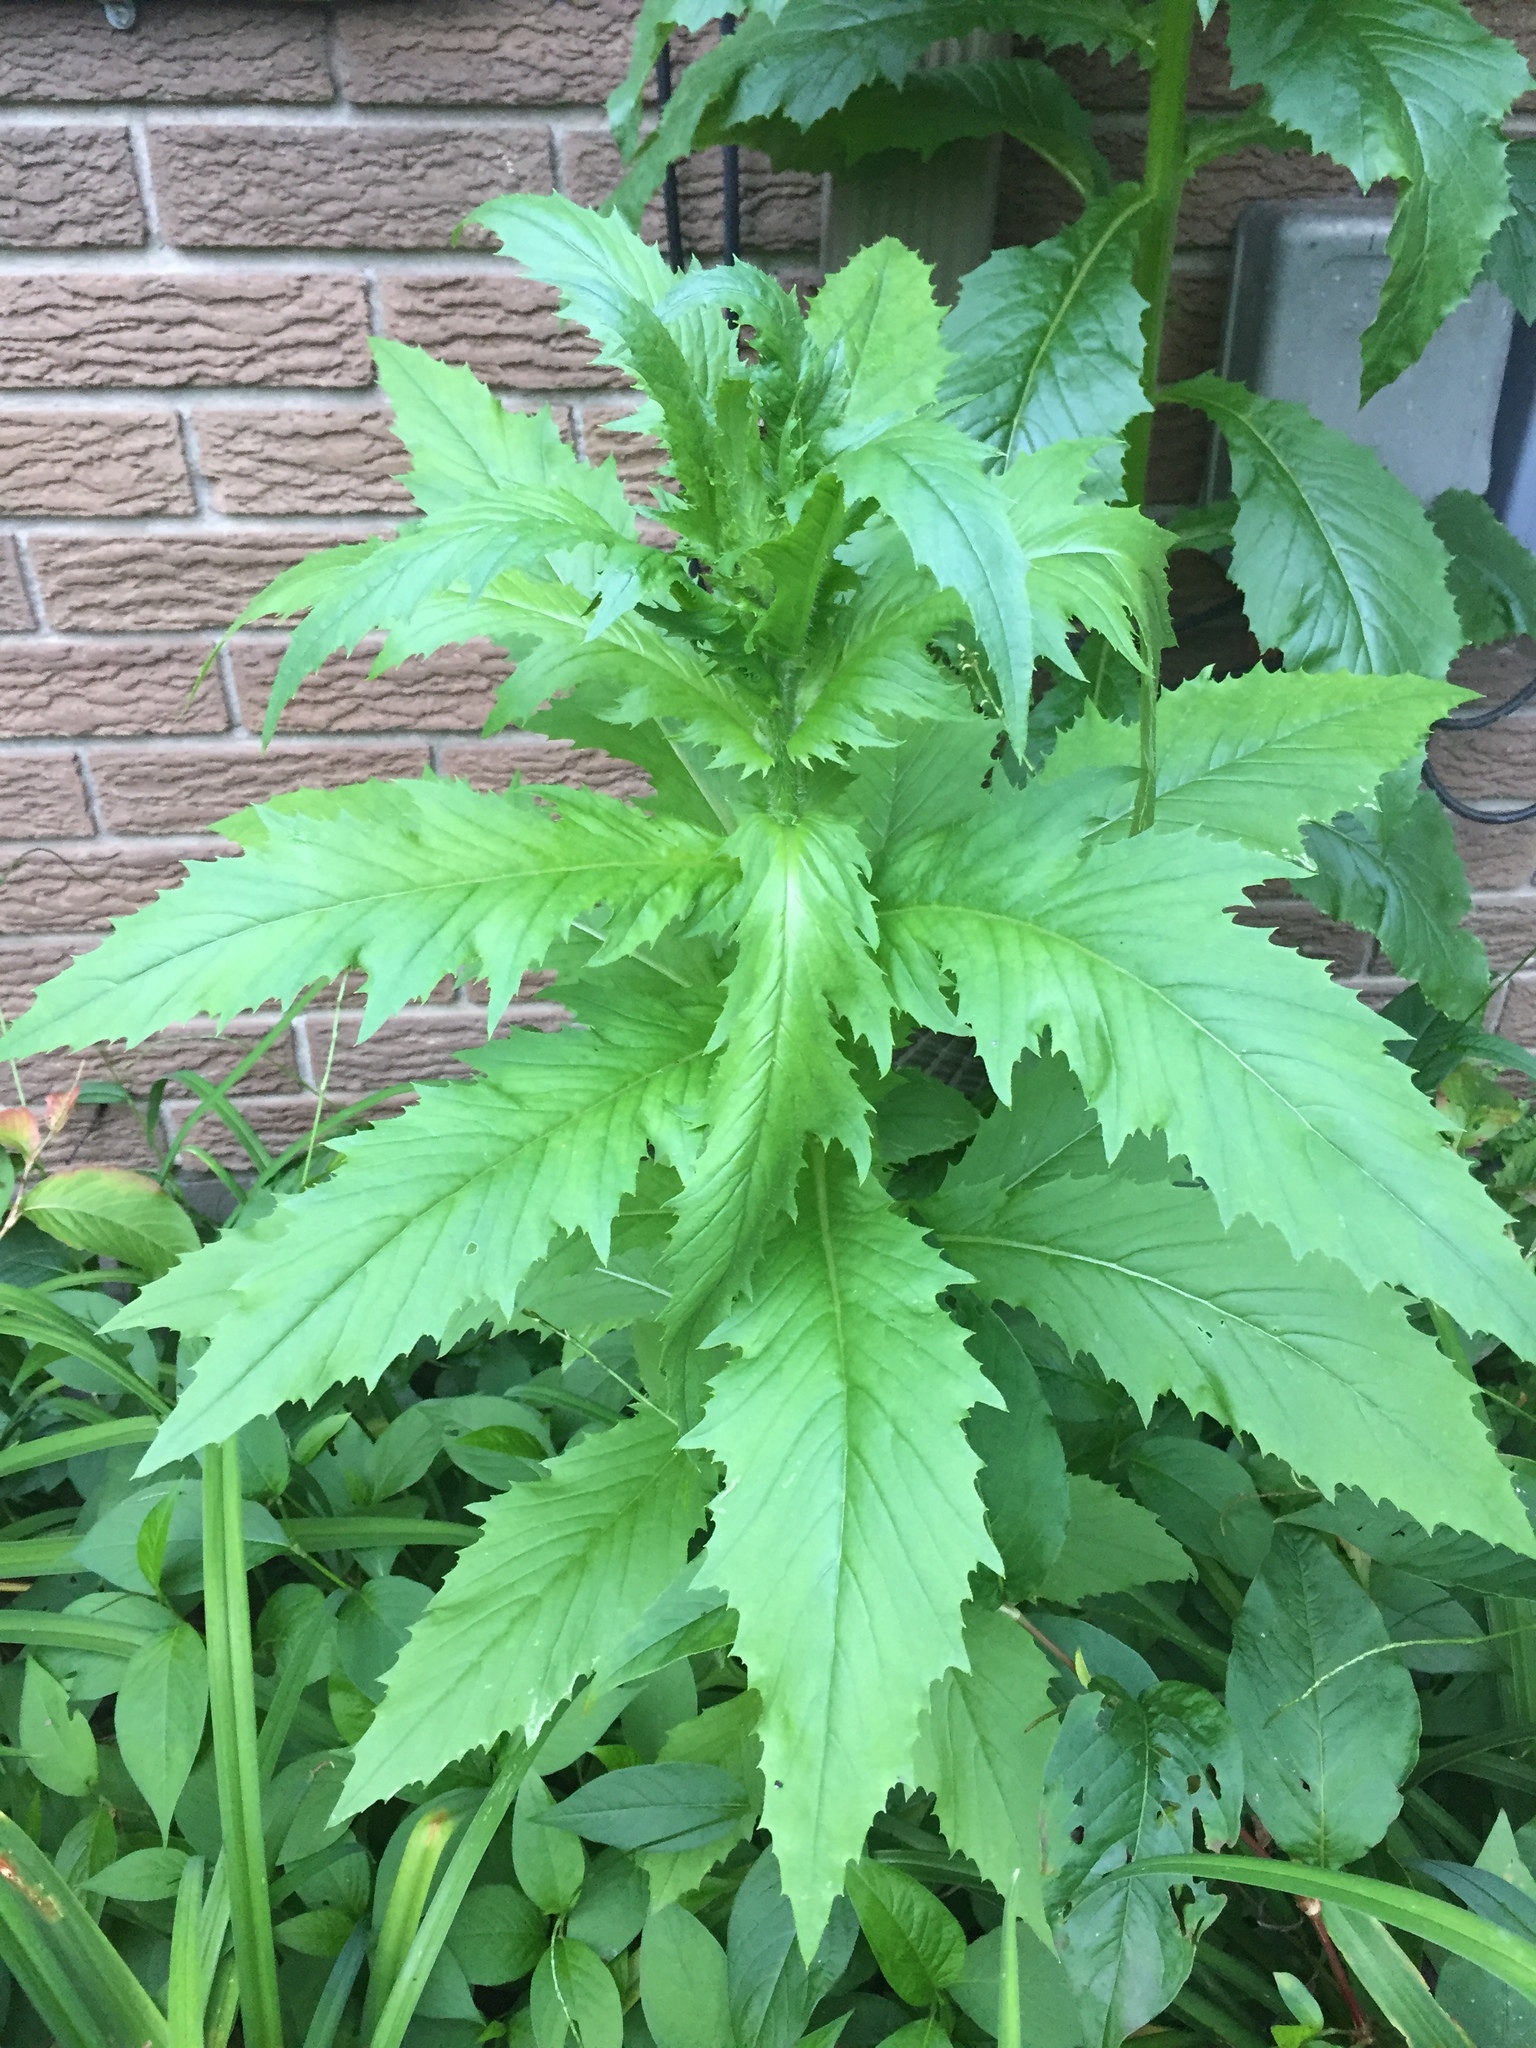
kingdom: Plantae
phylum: Tracheophyta
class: Magnoliopsida
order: Asterales
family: Asteraceae
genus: Erechtites
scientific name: Erechtites hieraciifolius
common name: American burnweed
